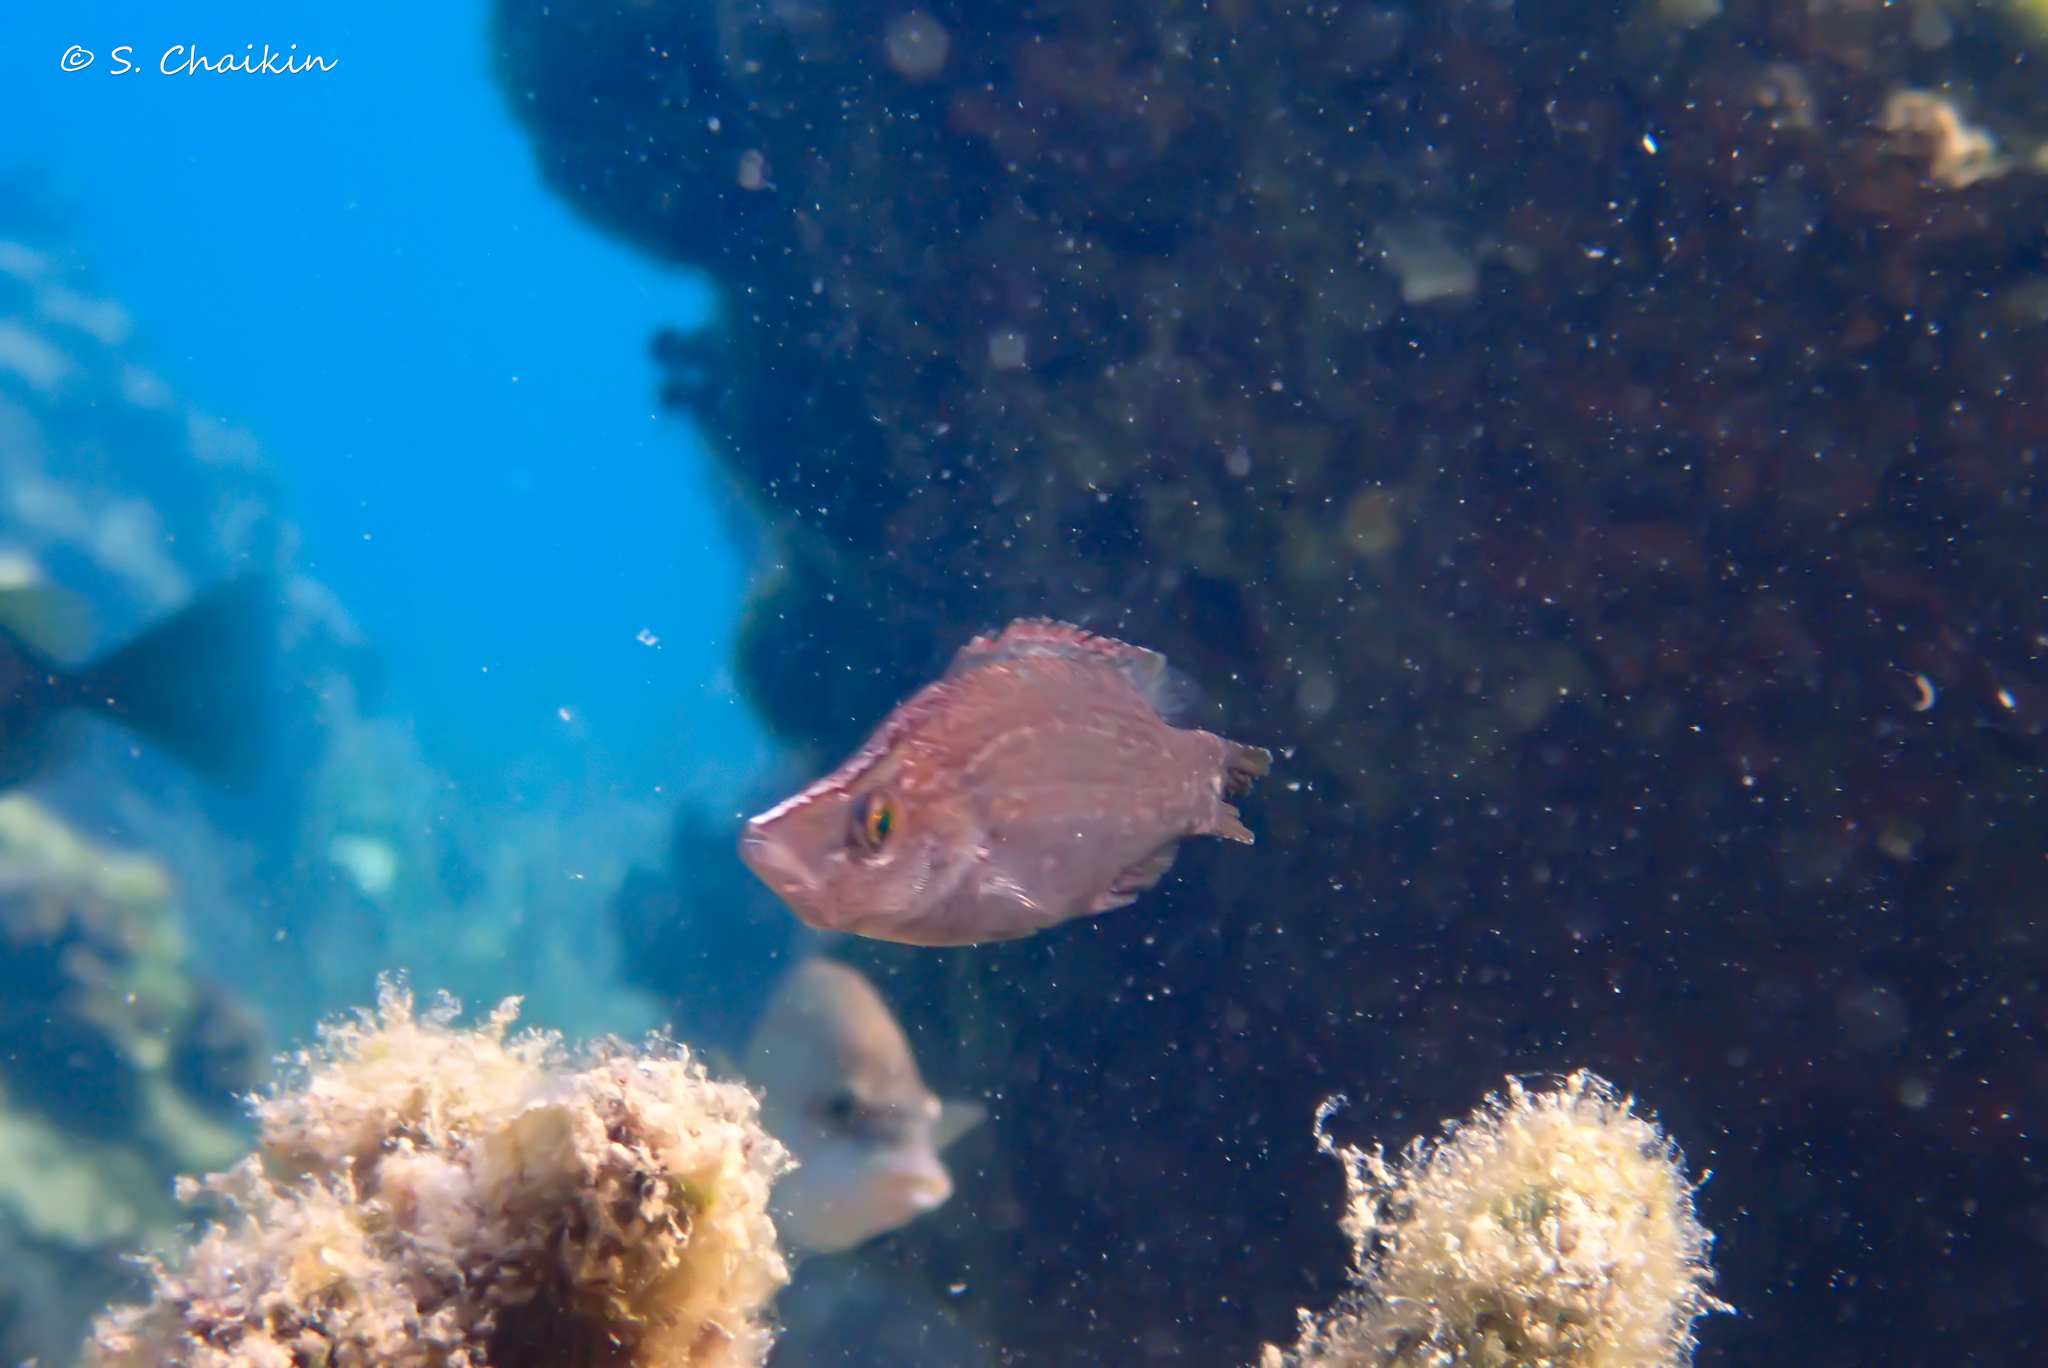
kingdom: Animalia
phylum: Chordata
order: Perciformes
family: Labridae
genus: Symphodus
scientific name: Symphodus rostratus
